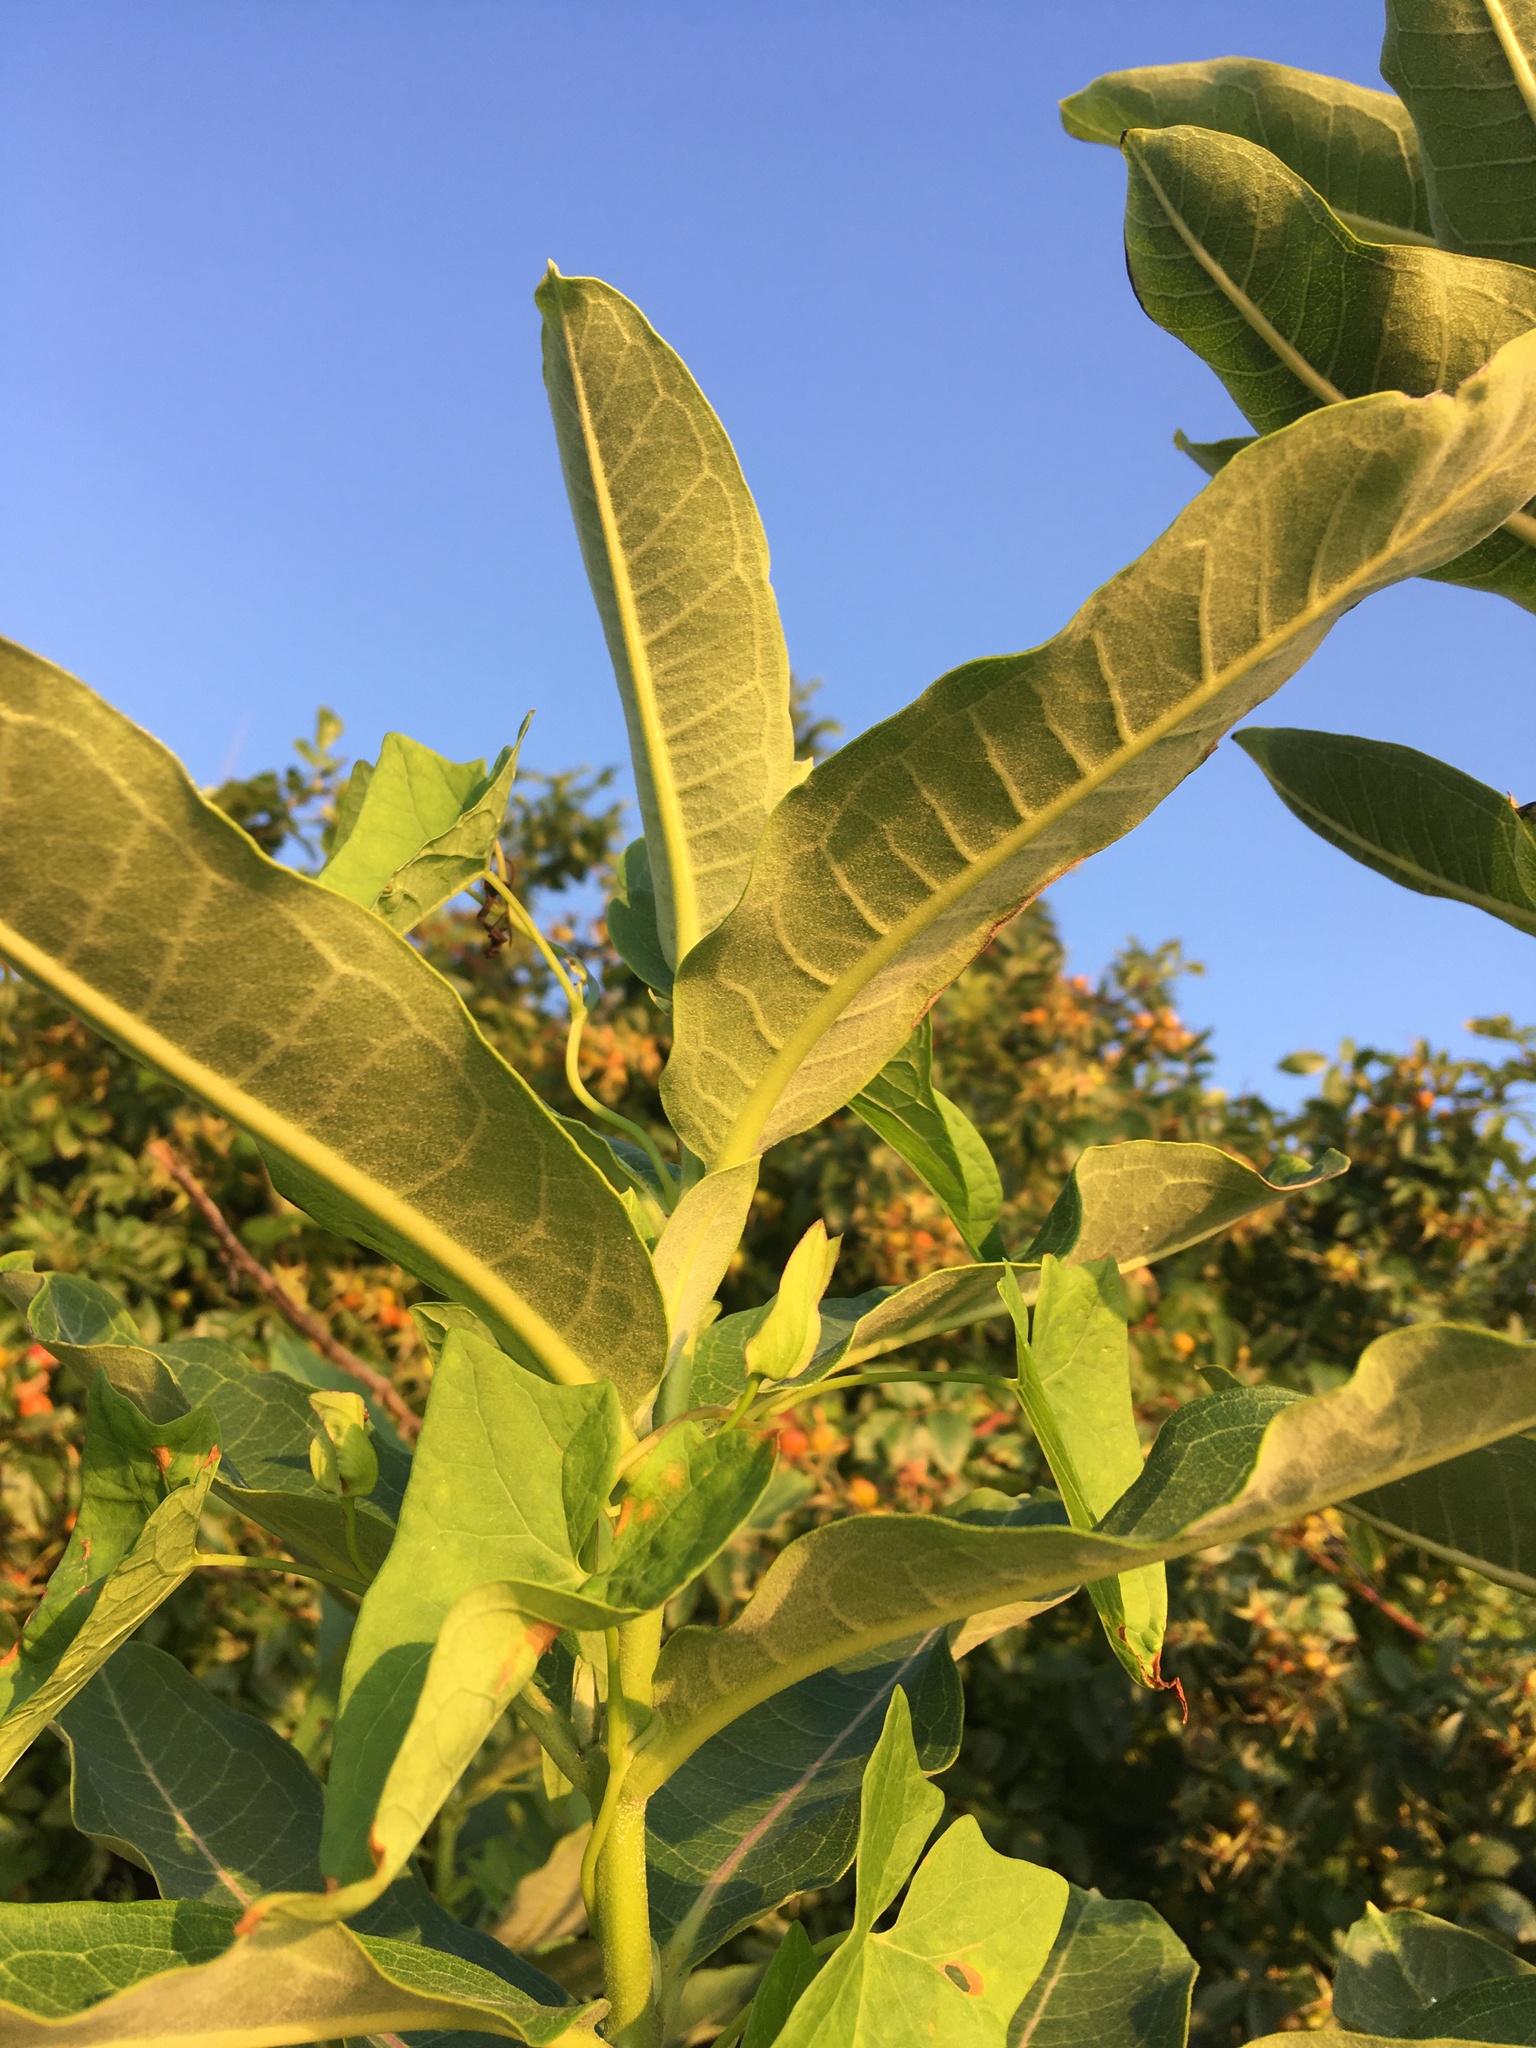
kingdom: Plantae
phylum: Tracheophyta
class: Magnoliopsida
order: Gentianales
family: Apocynaceae
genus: Asclepias
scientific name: Asclepias syriaca
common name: Common milkweed
